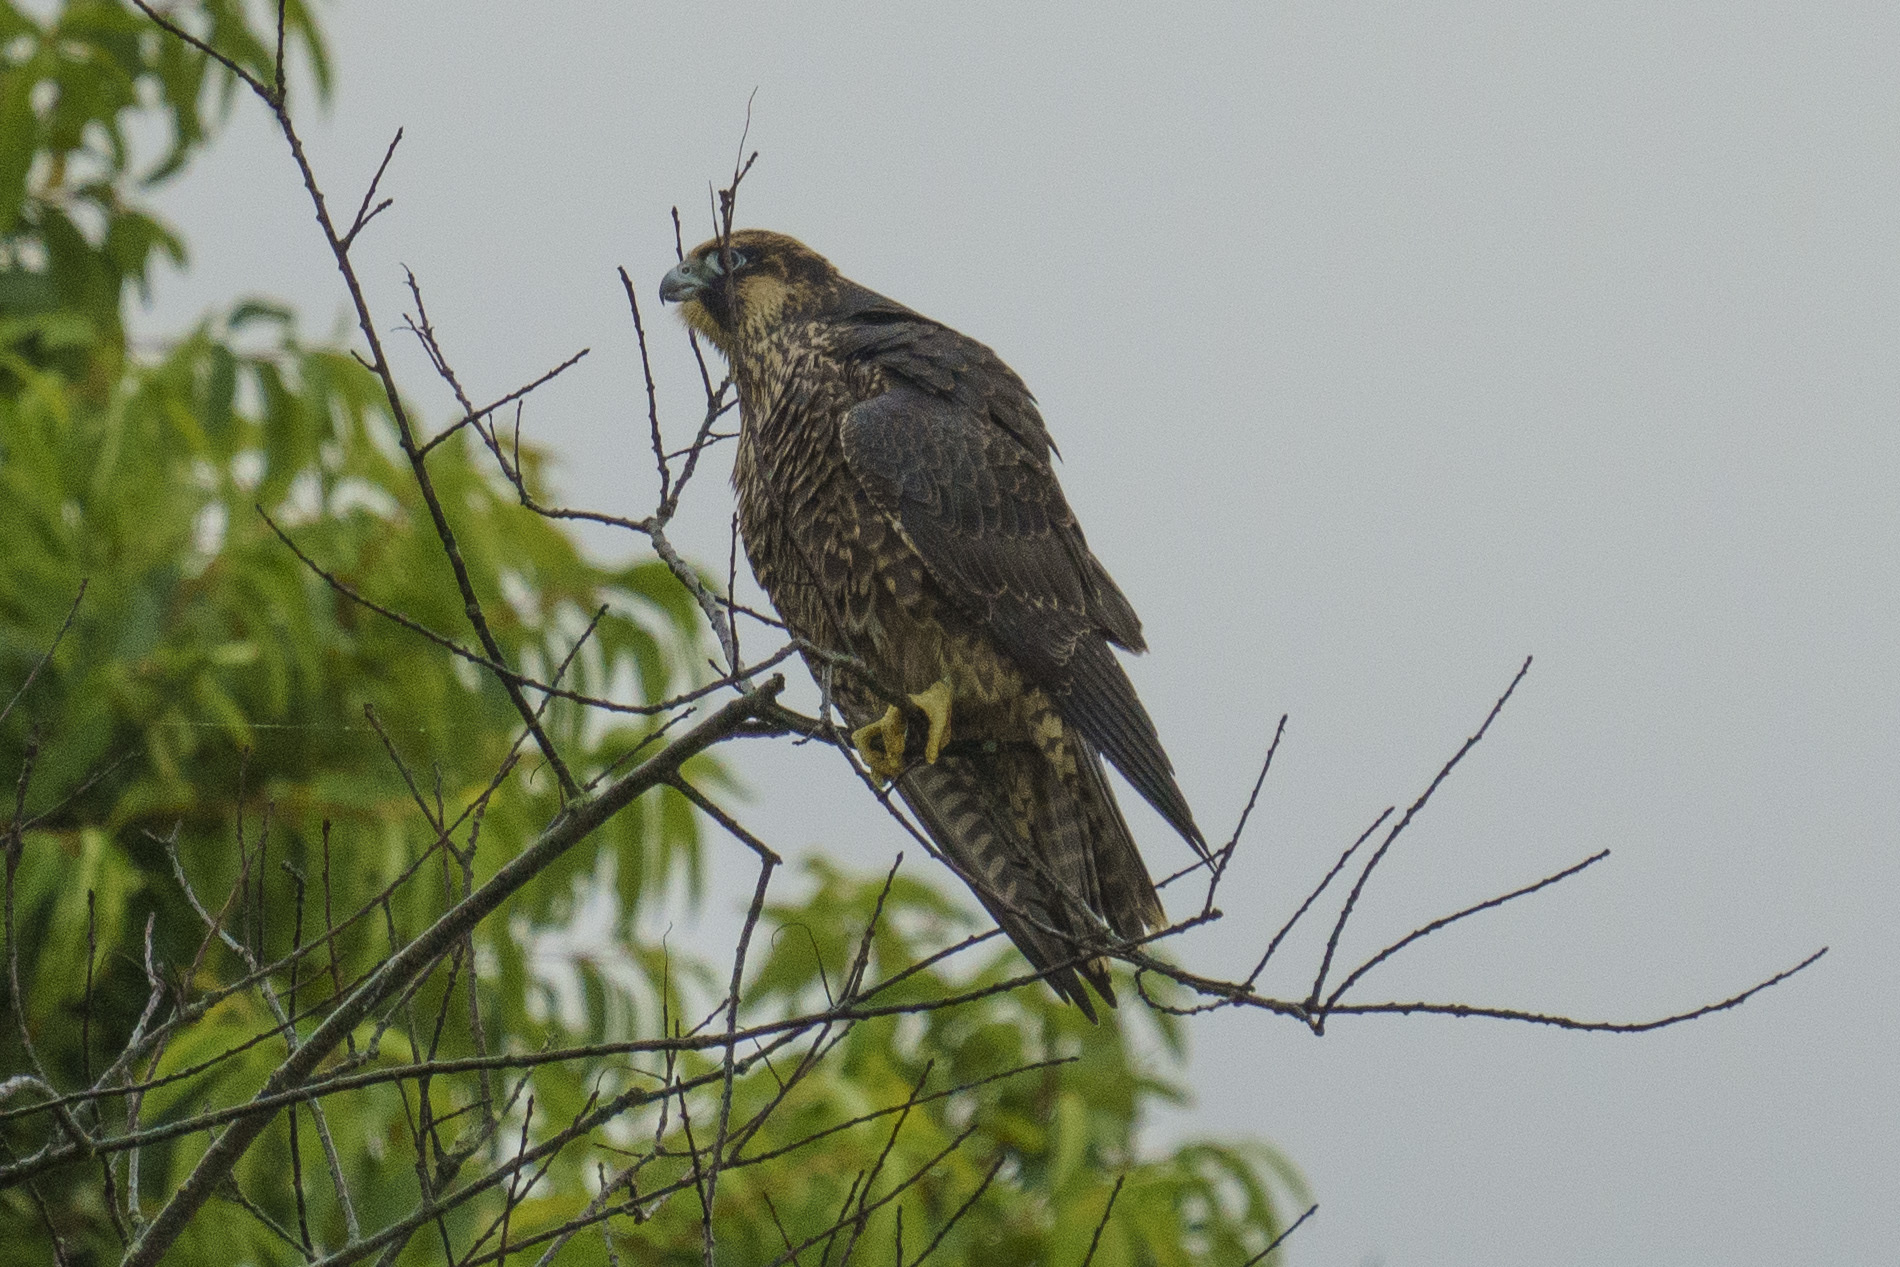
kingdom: Animalia
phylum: Chordata
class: Aves
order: Falconiformes
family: Falconidae
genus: Falco
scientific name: Falco peregrinus
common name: Peregrine falcon
